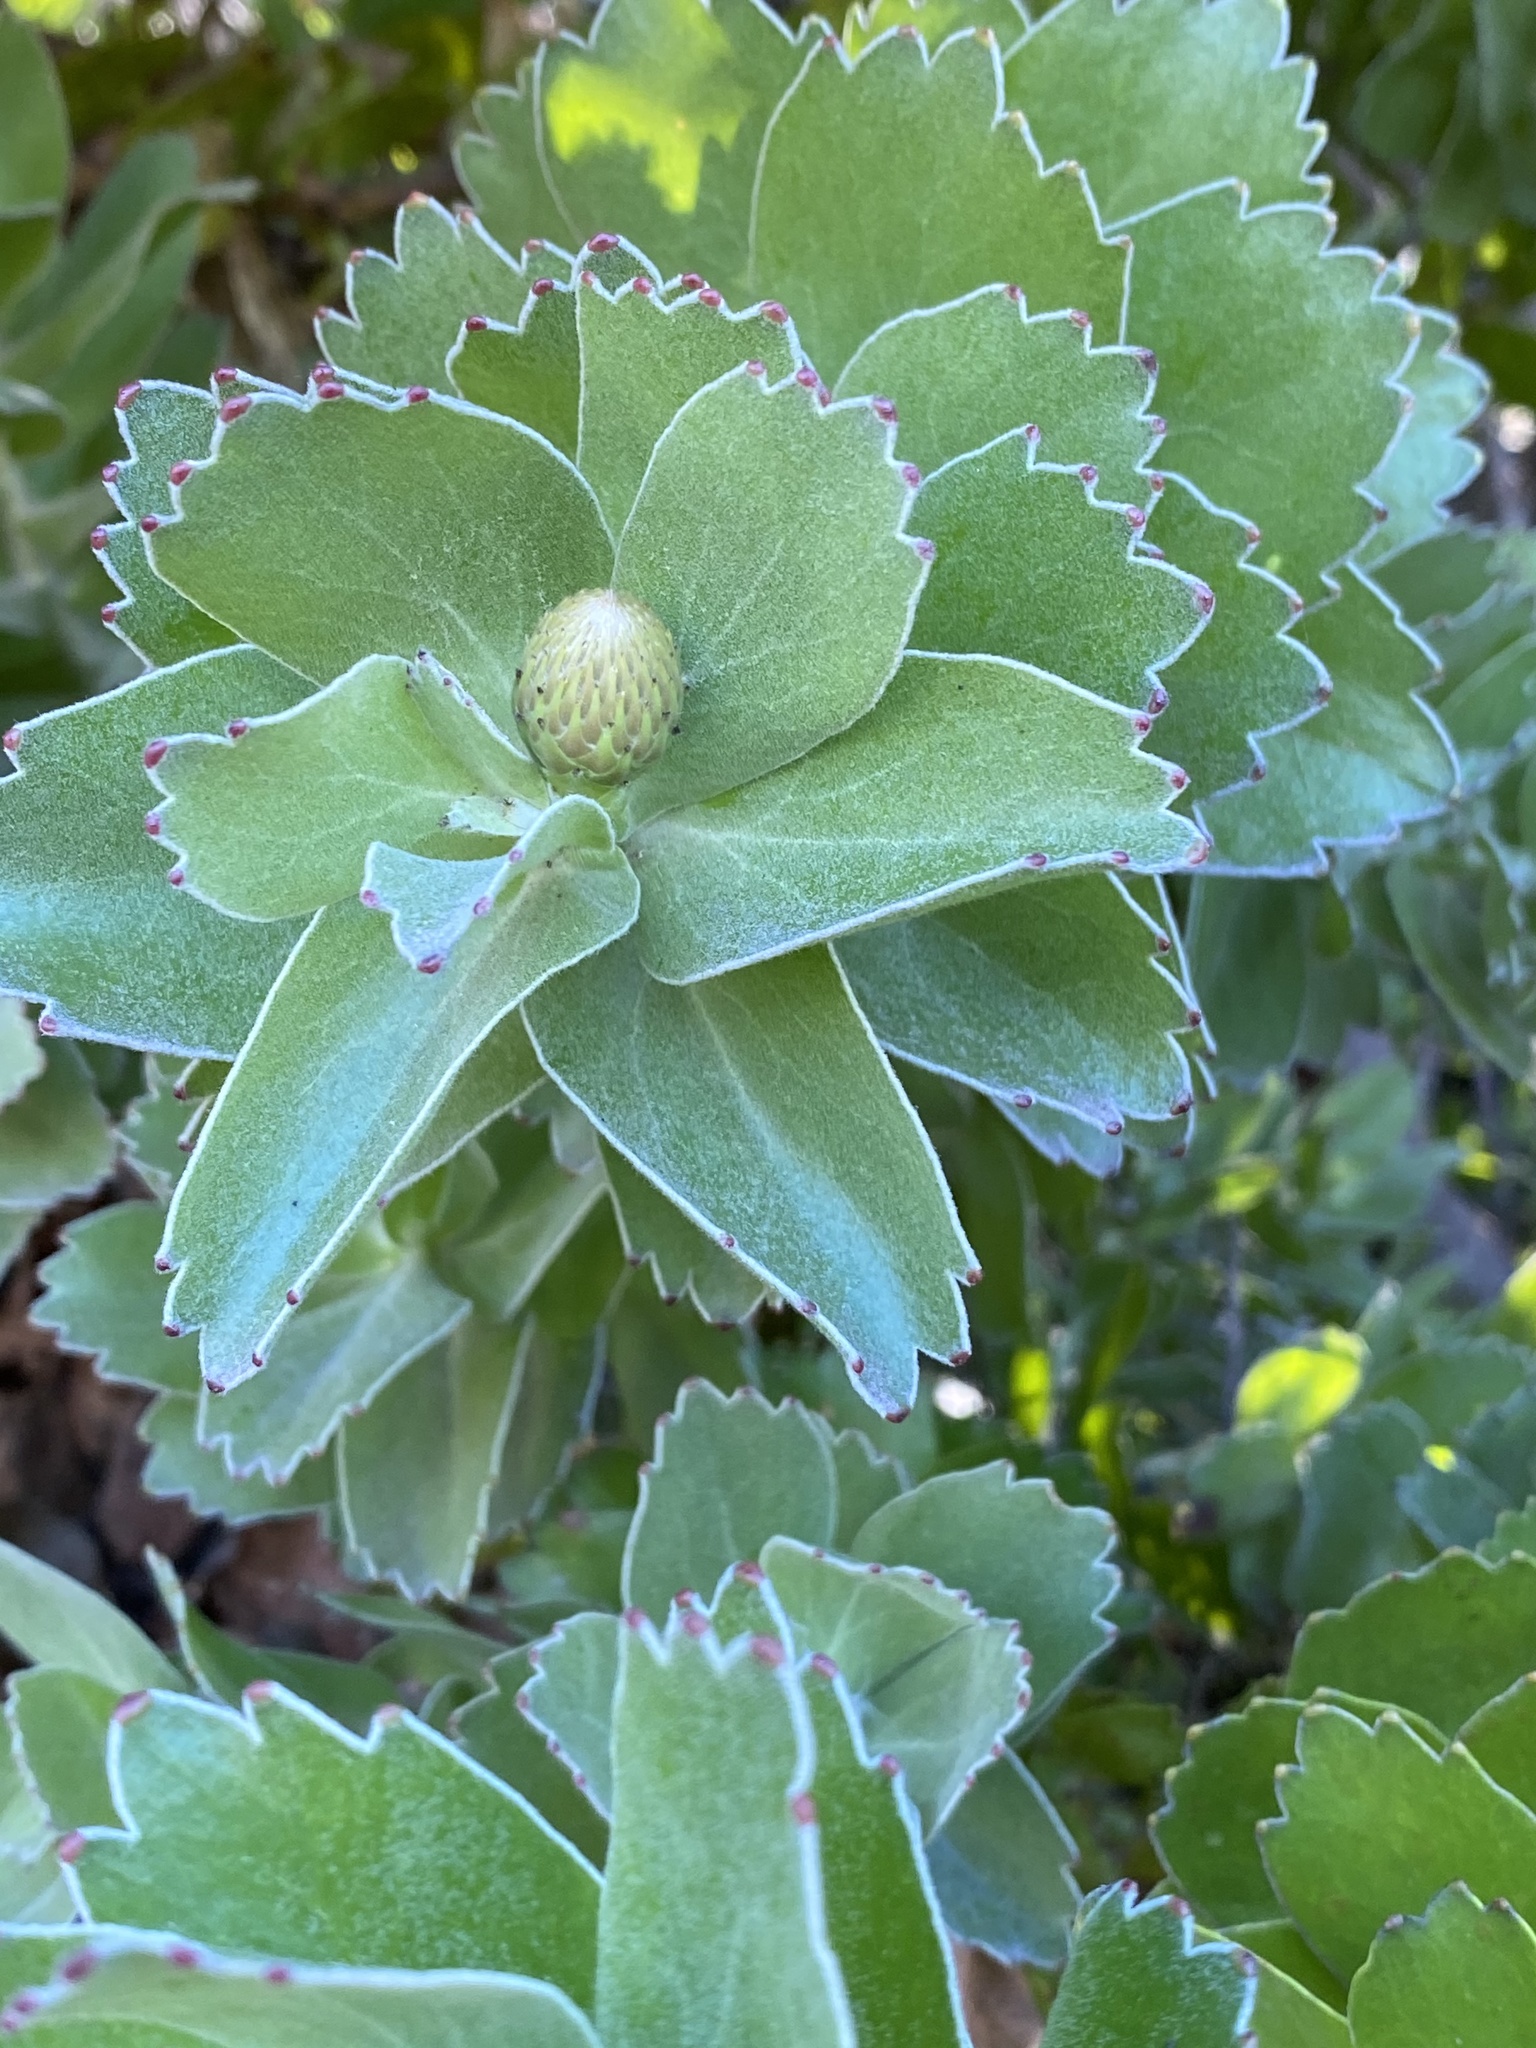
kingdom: Plantae
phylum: Tracheophyta
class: Magnoliopsida
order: Proteales
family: Proteaceae
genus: Leucospermum
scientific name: Leucospermum patersonii
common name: False tree pincushion
